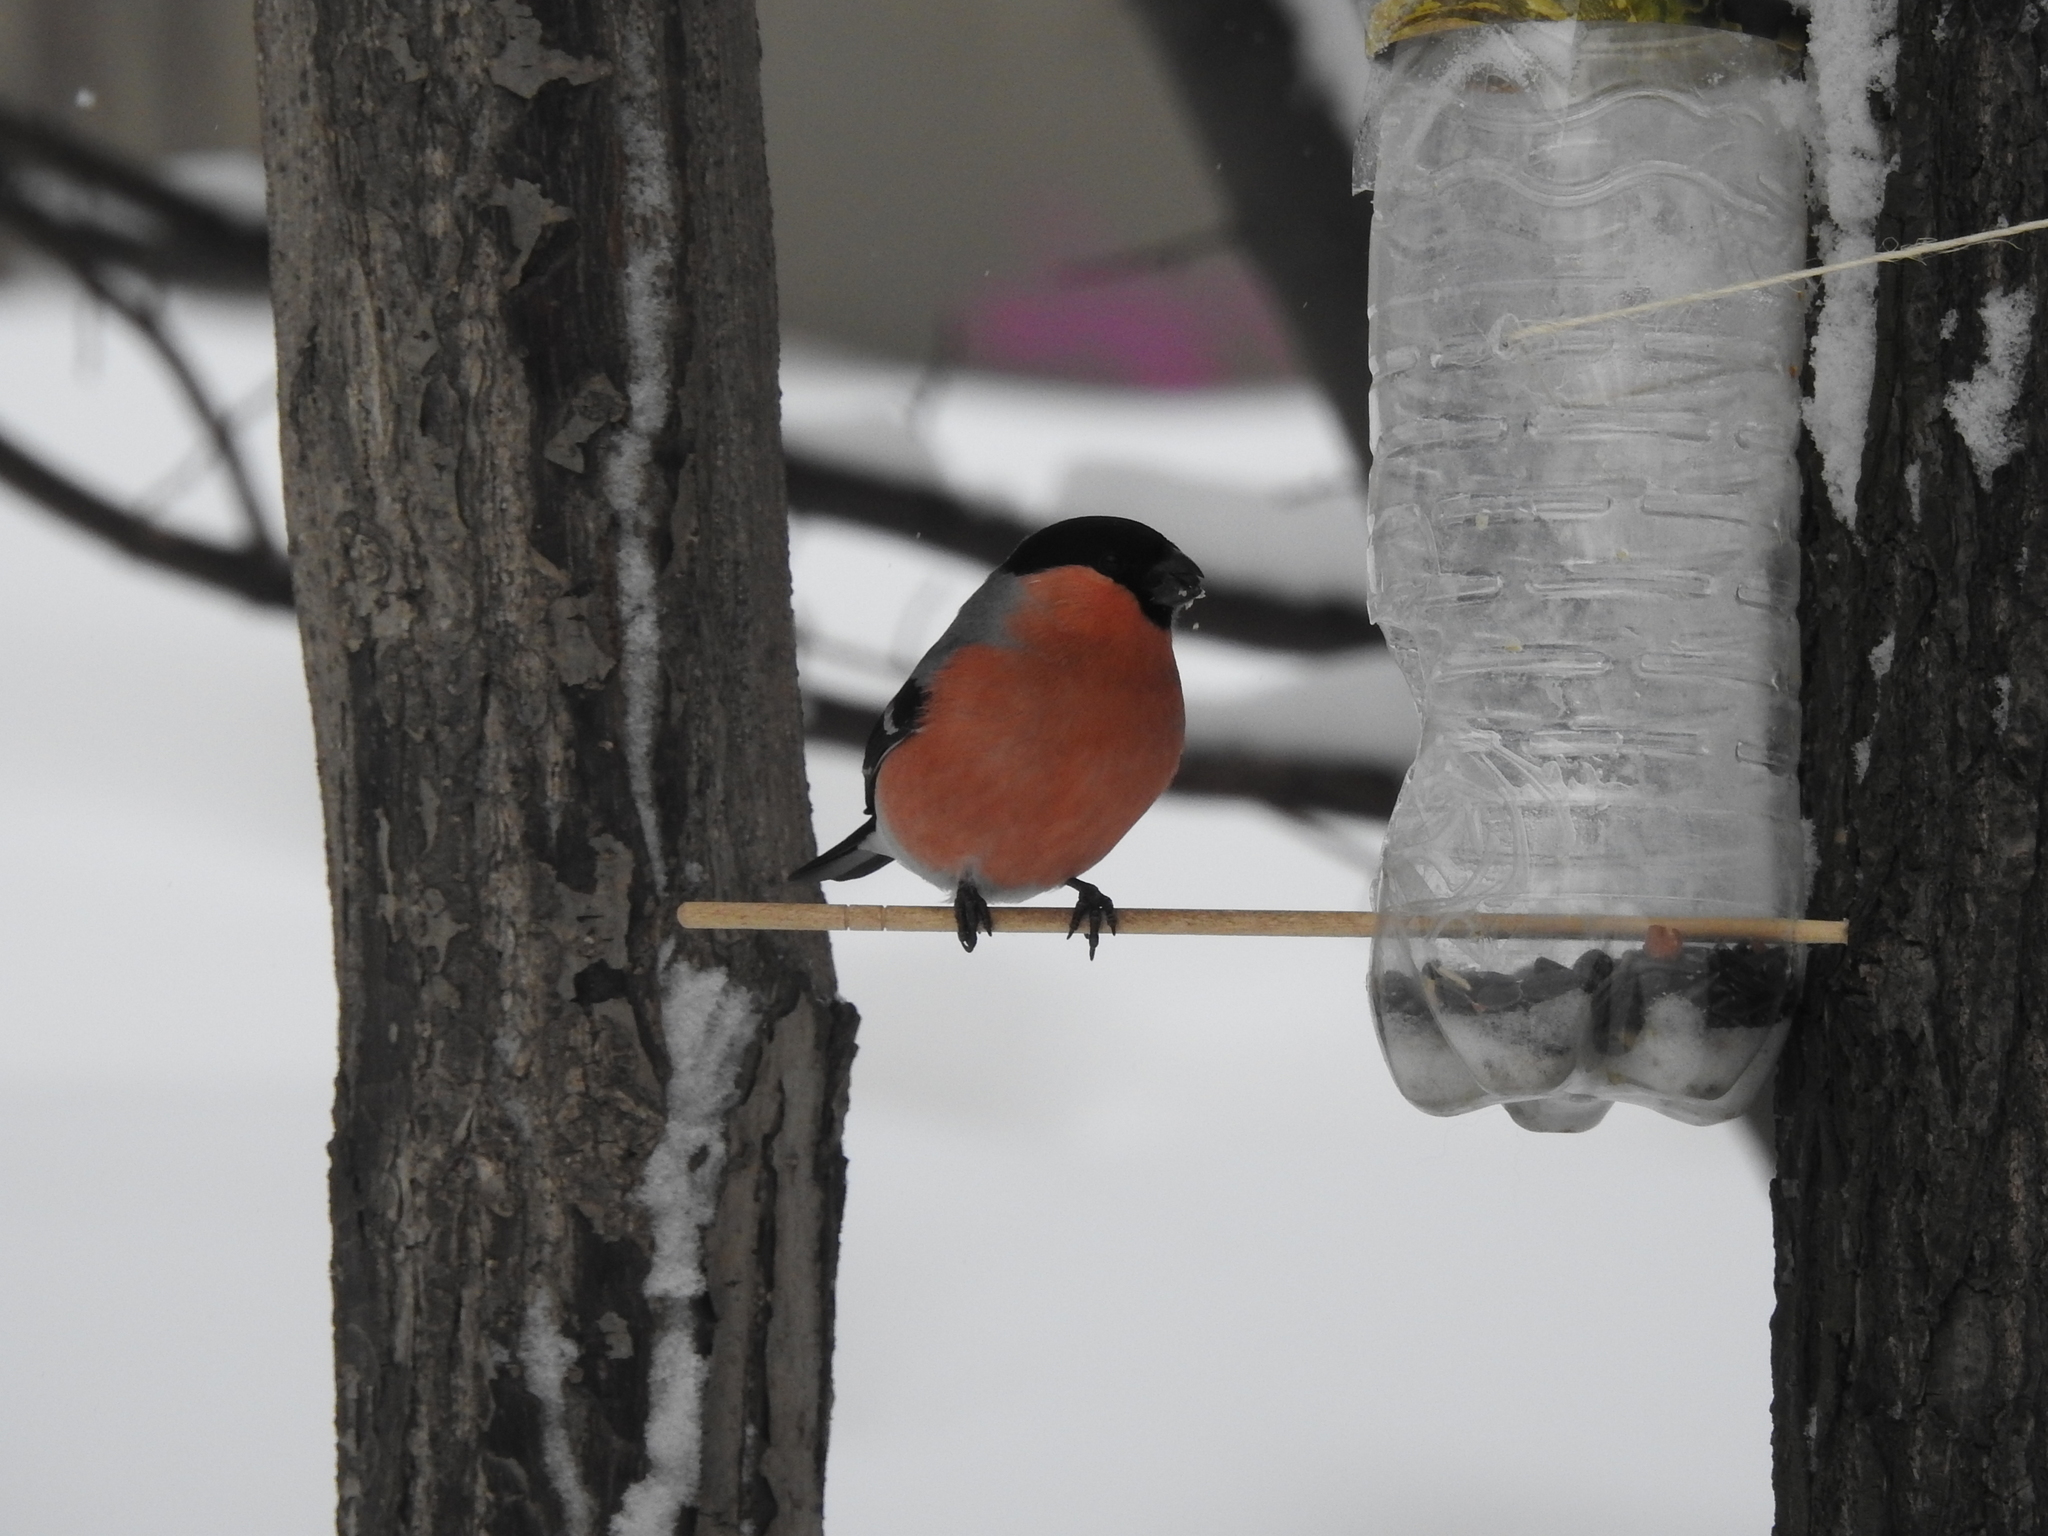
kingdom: Animalia
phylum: Chordata
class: Aves
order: Passeriformes
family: Fringillidae
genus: Pyrrhula
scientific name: Pyrrhula pyrrhula
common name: Eurasian bullfinch
